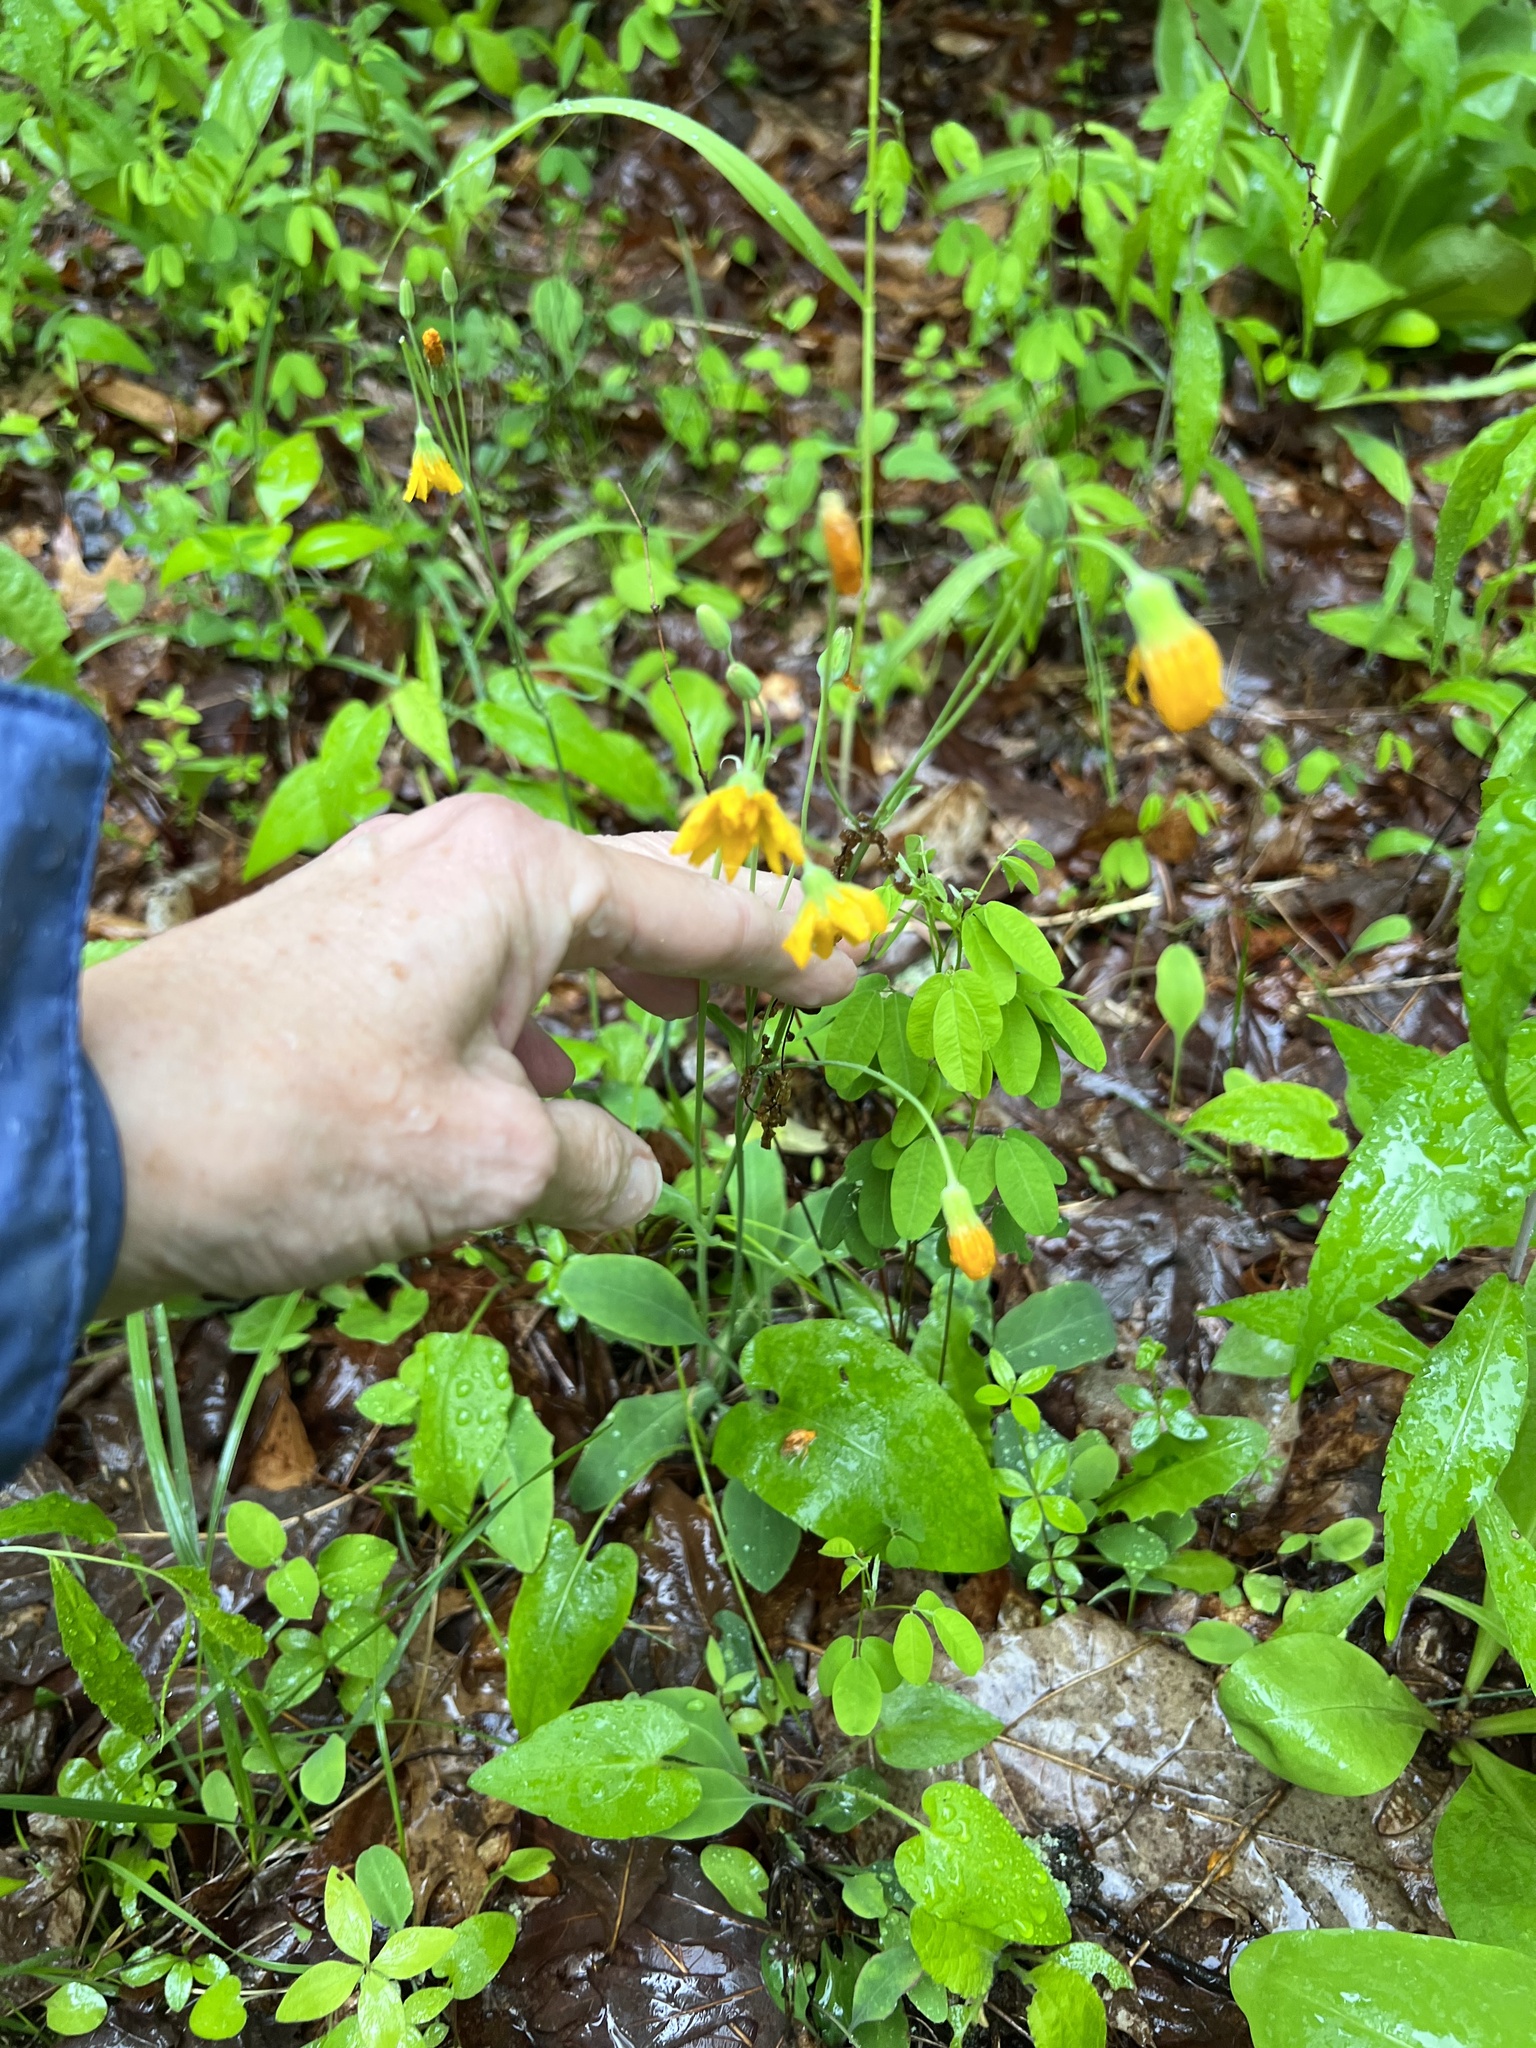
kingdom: Plantae
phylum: Tracheophyta
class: Magnoliopsida
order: Asterales
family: Asteraceae
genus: Krigia
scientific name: Krigia biflora
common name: Orange dwarf-dandelion
